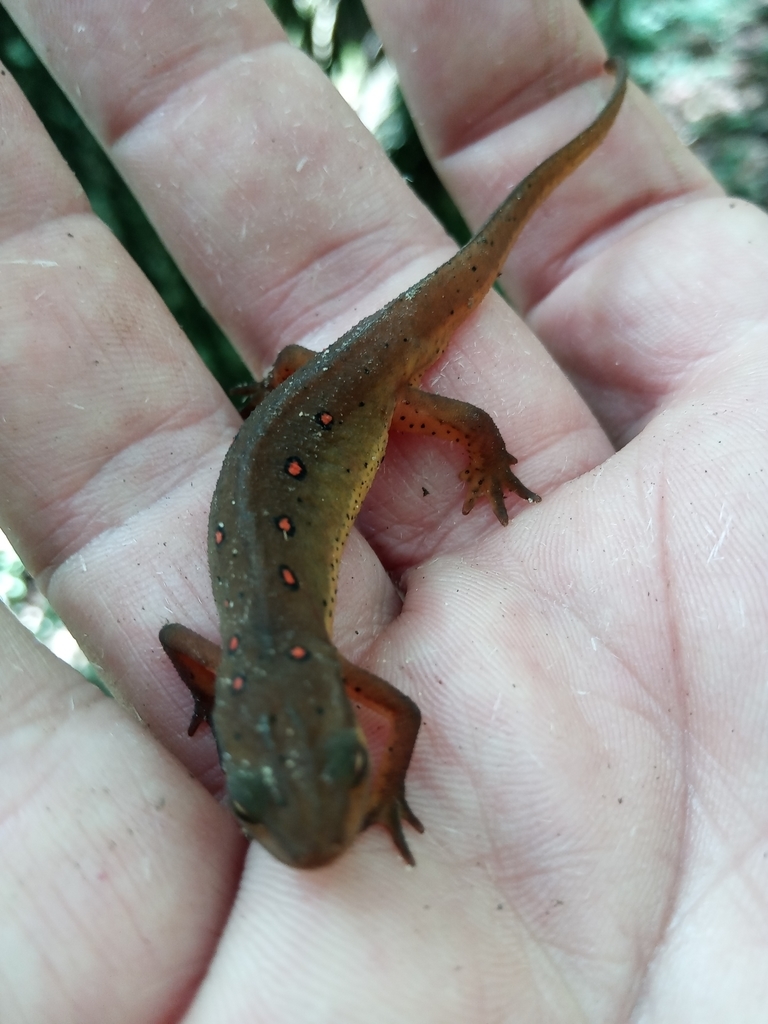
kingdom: Animalia
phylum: Chordata
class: Amphibia
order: Caudata
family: Salamandridae
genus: Notophthalmus
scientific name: Notophthalmus viridescens
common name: Eastern newt
